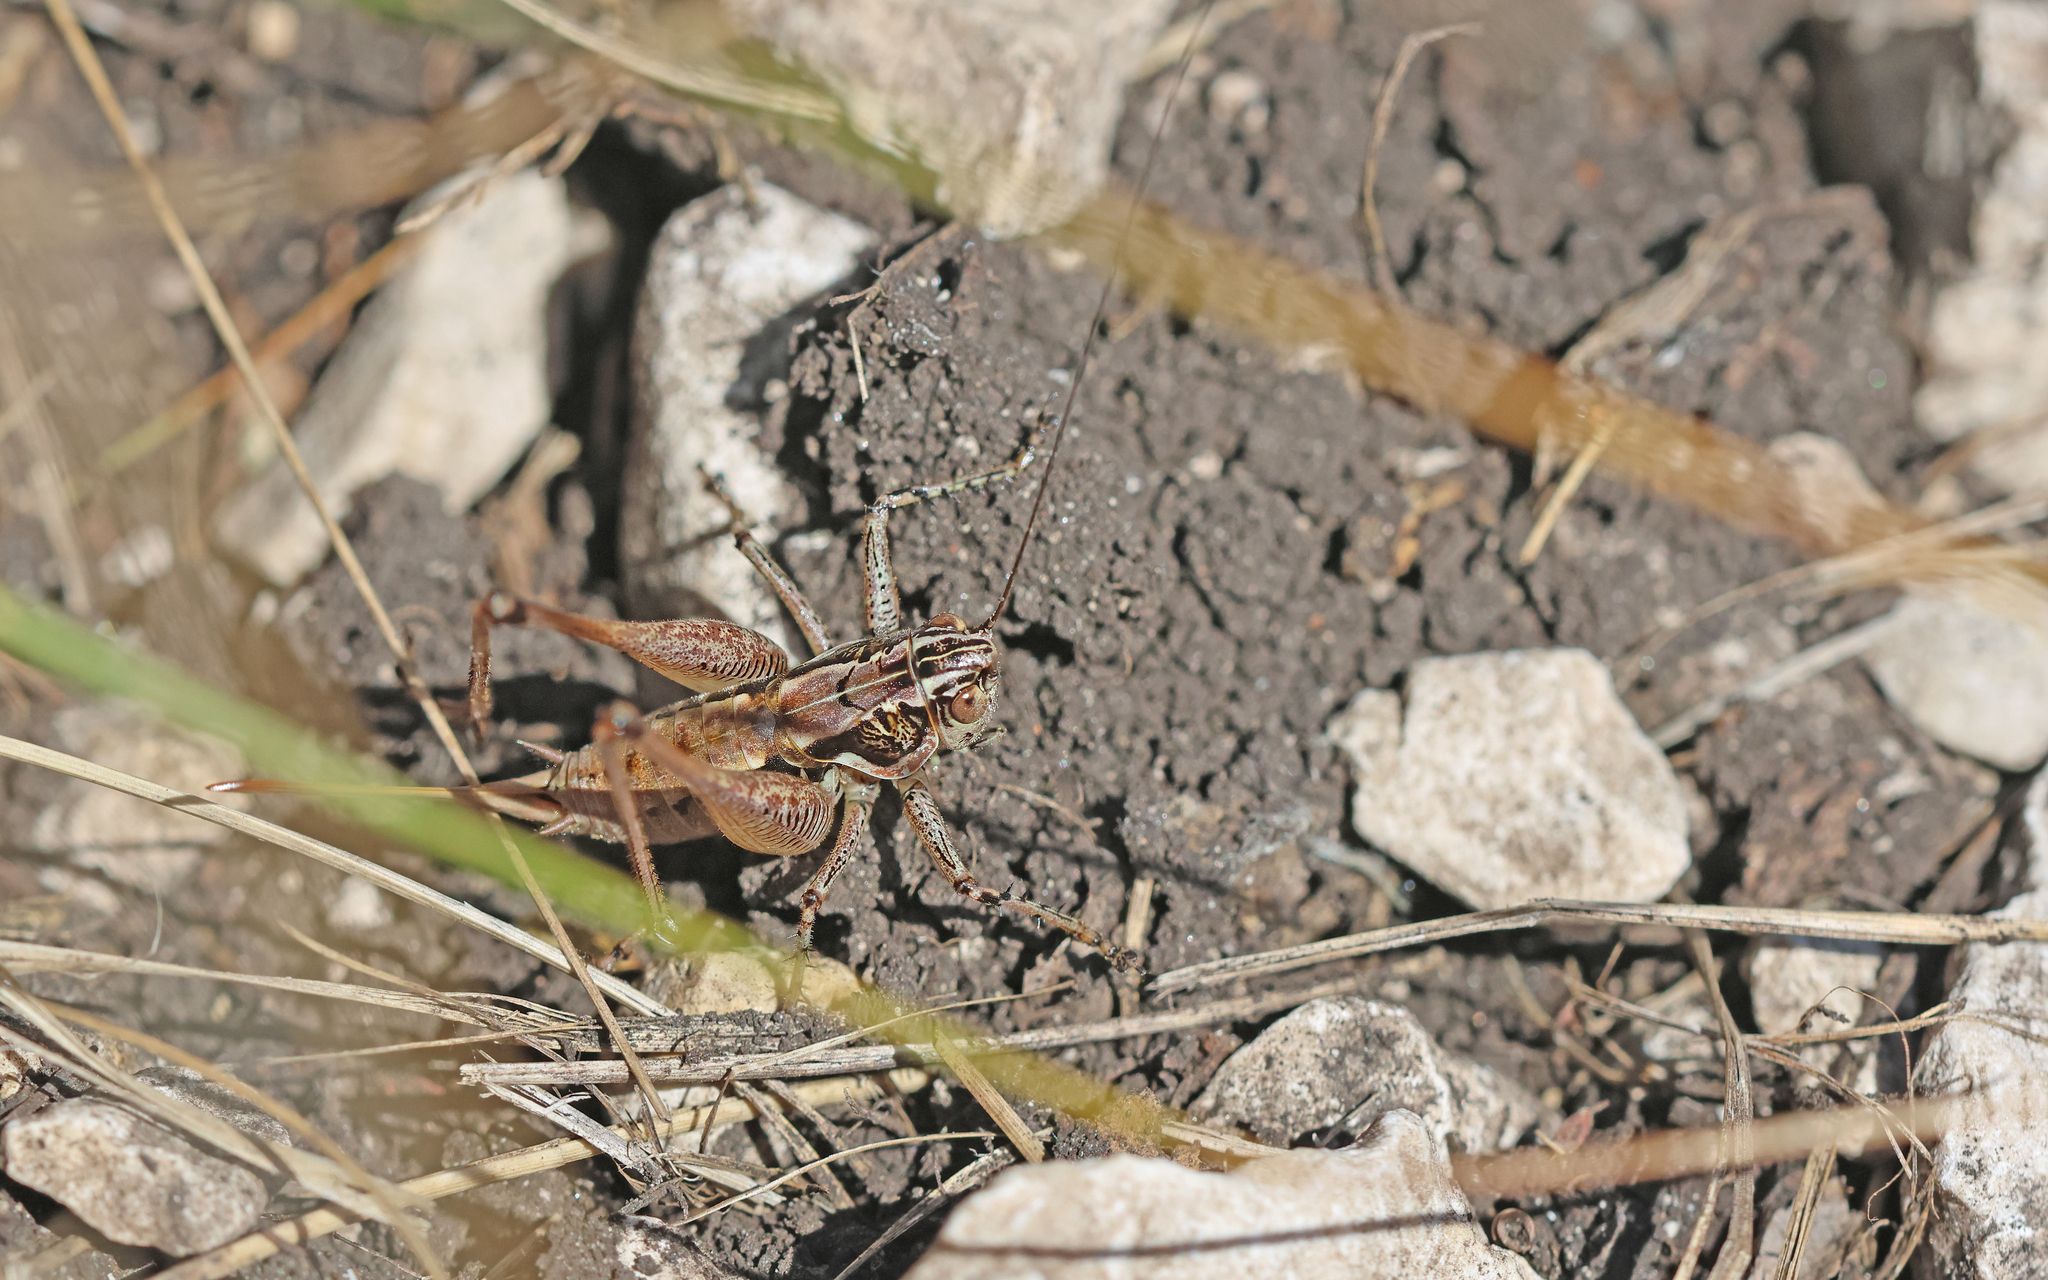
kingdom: Animalia
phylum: Arthropoda
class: Insecta
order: Orthoptera
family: Tettigoniidae
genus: Pachytrachis
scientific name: Pachytrachis striolatus
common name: Striated bush-cricket
